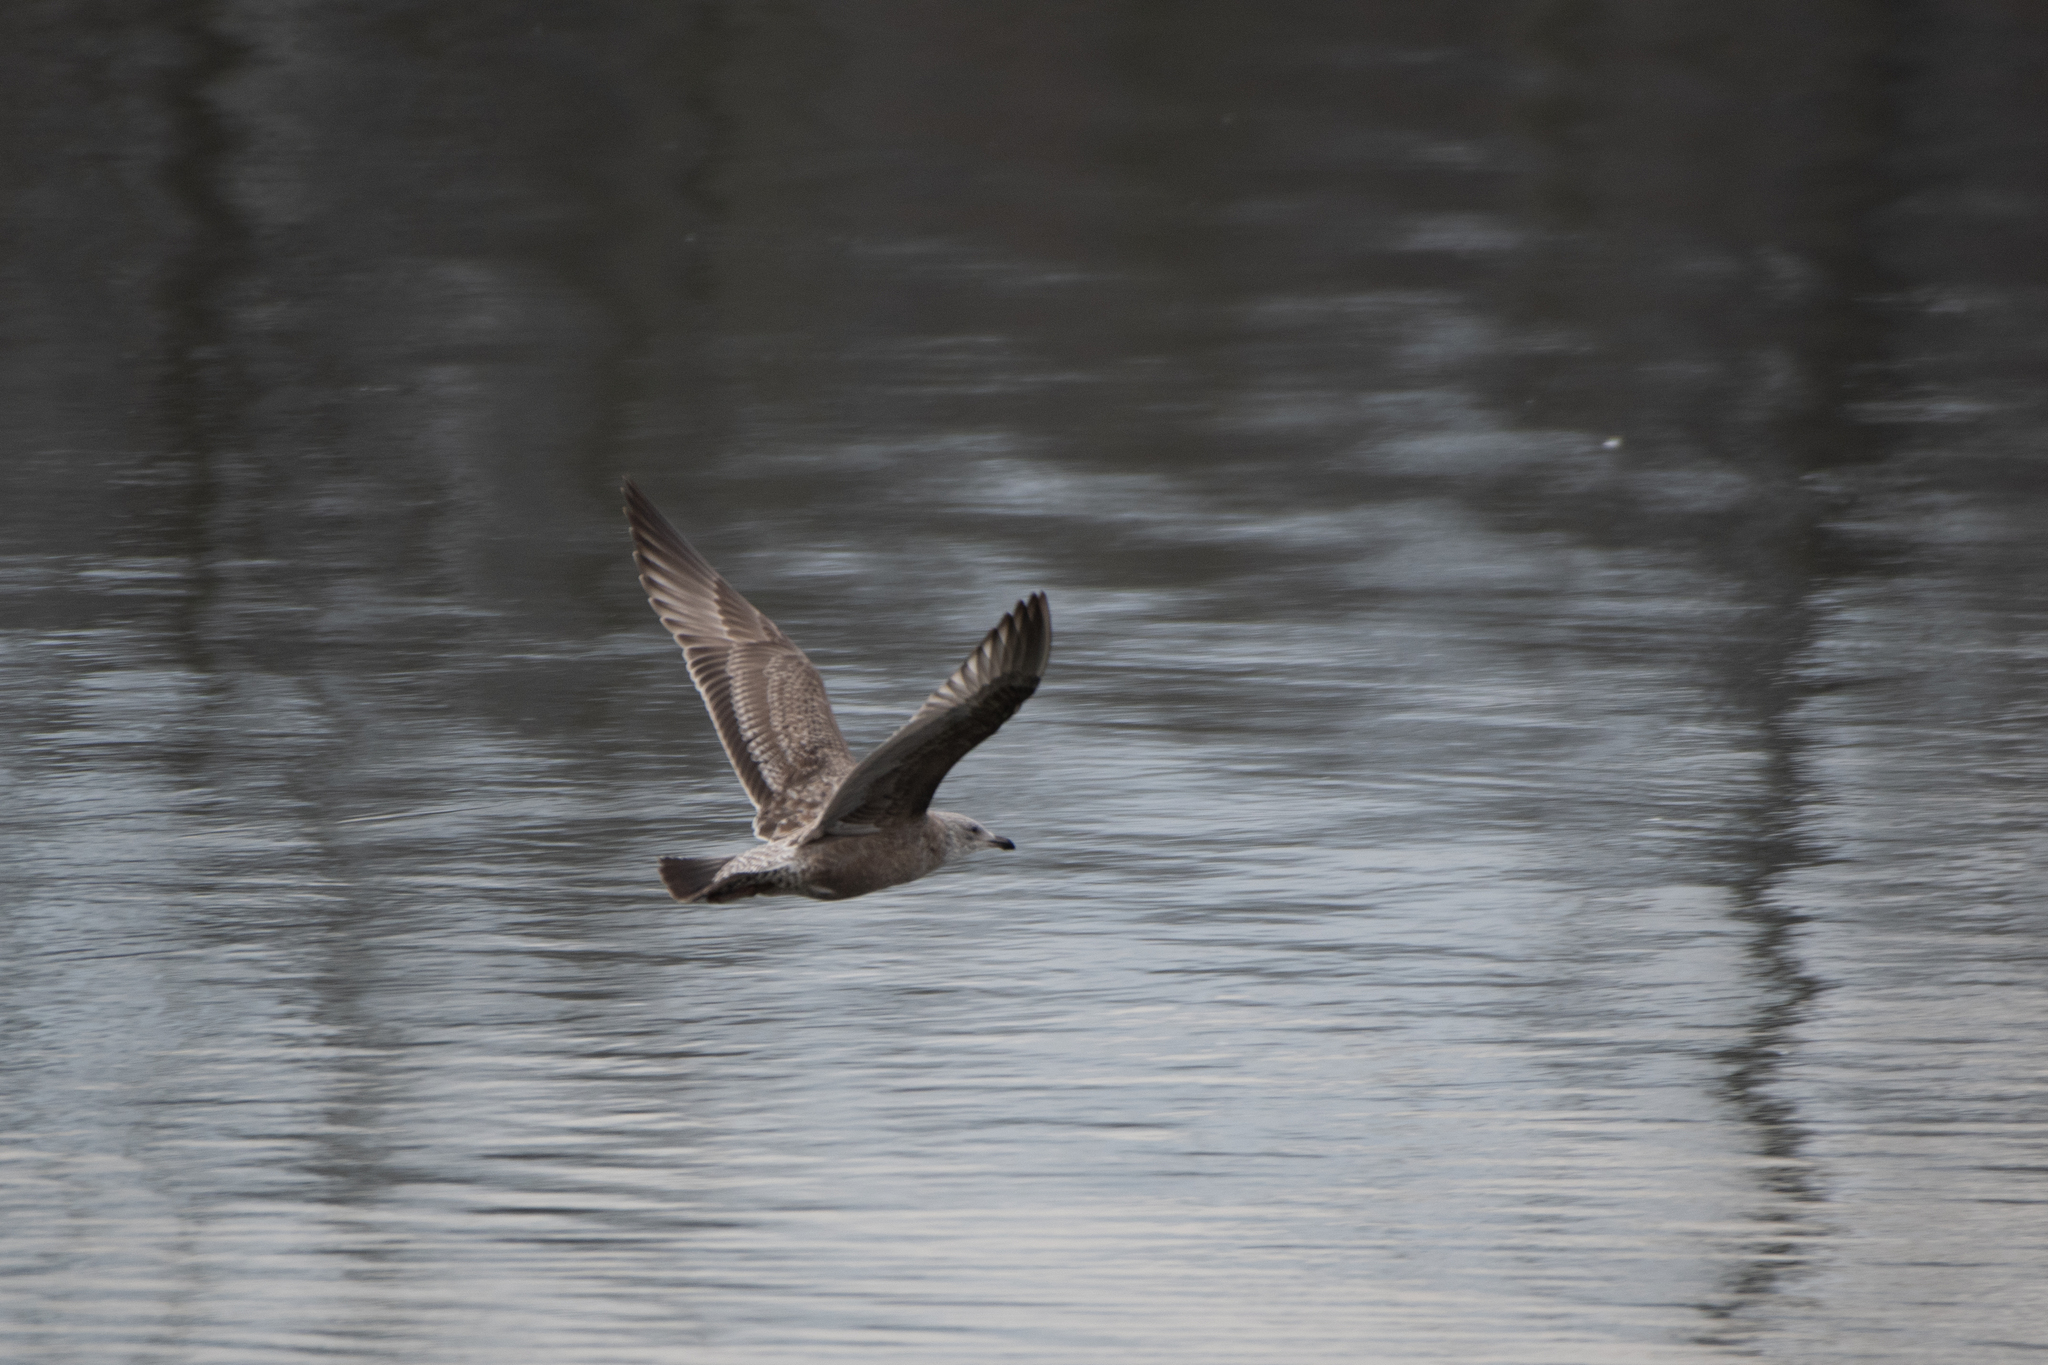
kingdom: Animalia
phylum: Chordata
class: Aves
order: Charadriiformes
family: Laridae
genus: Larus
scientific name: Larus argentatus
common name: Herring gull
